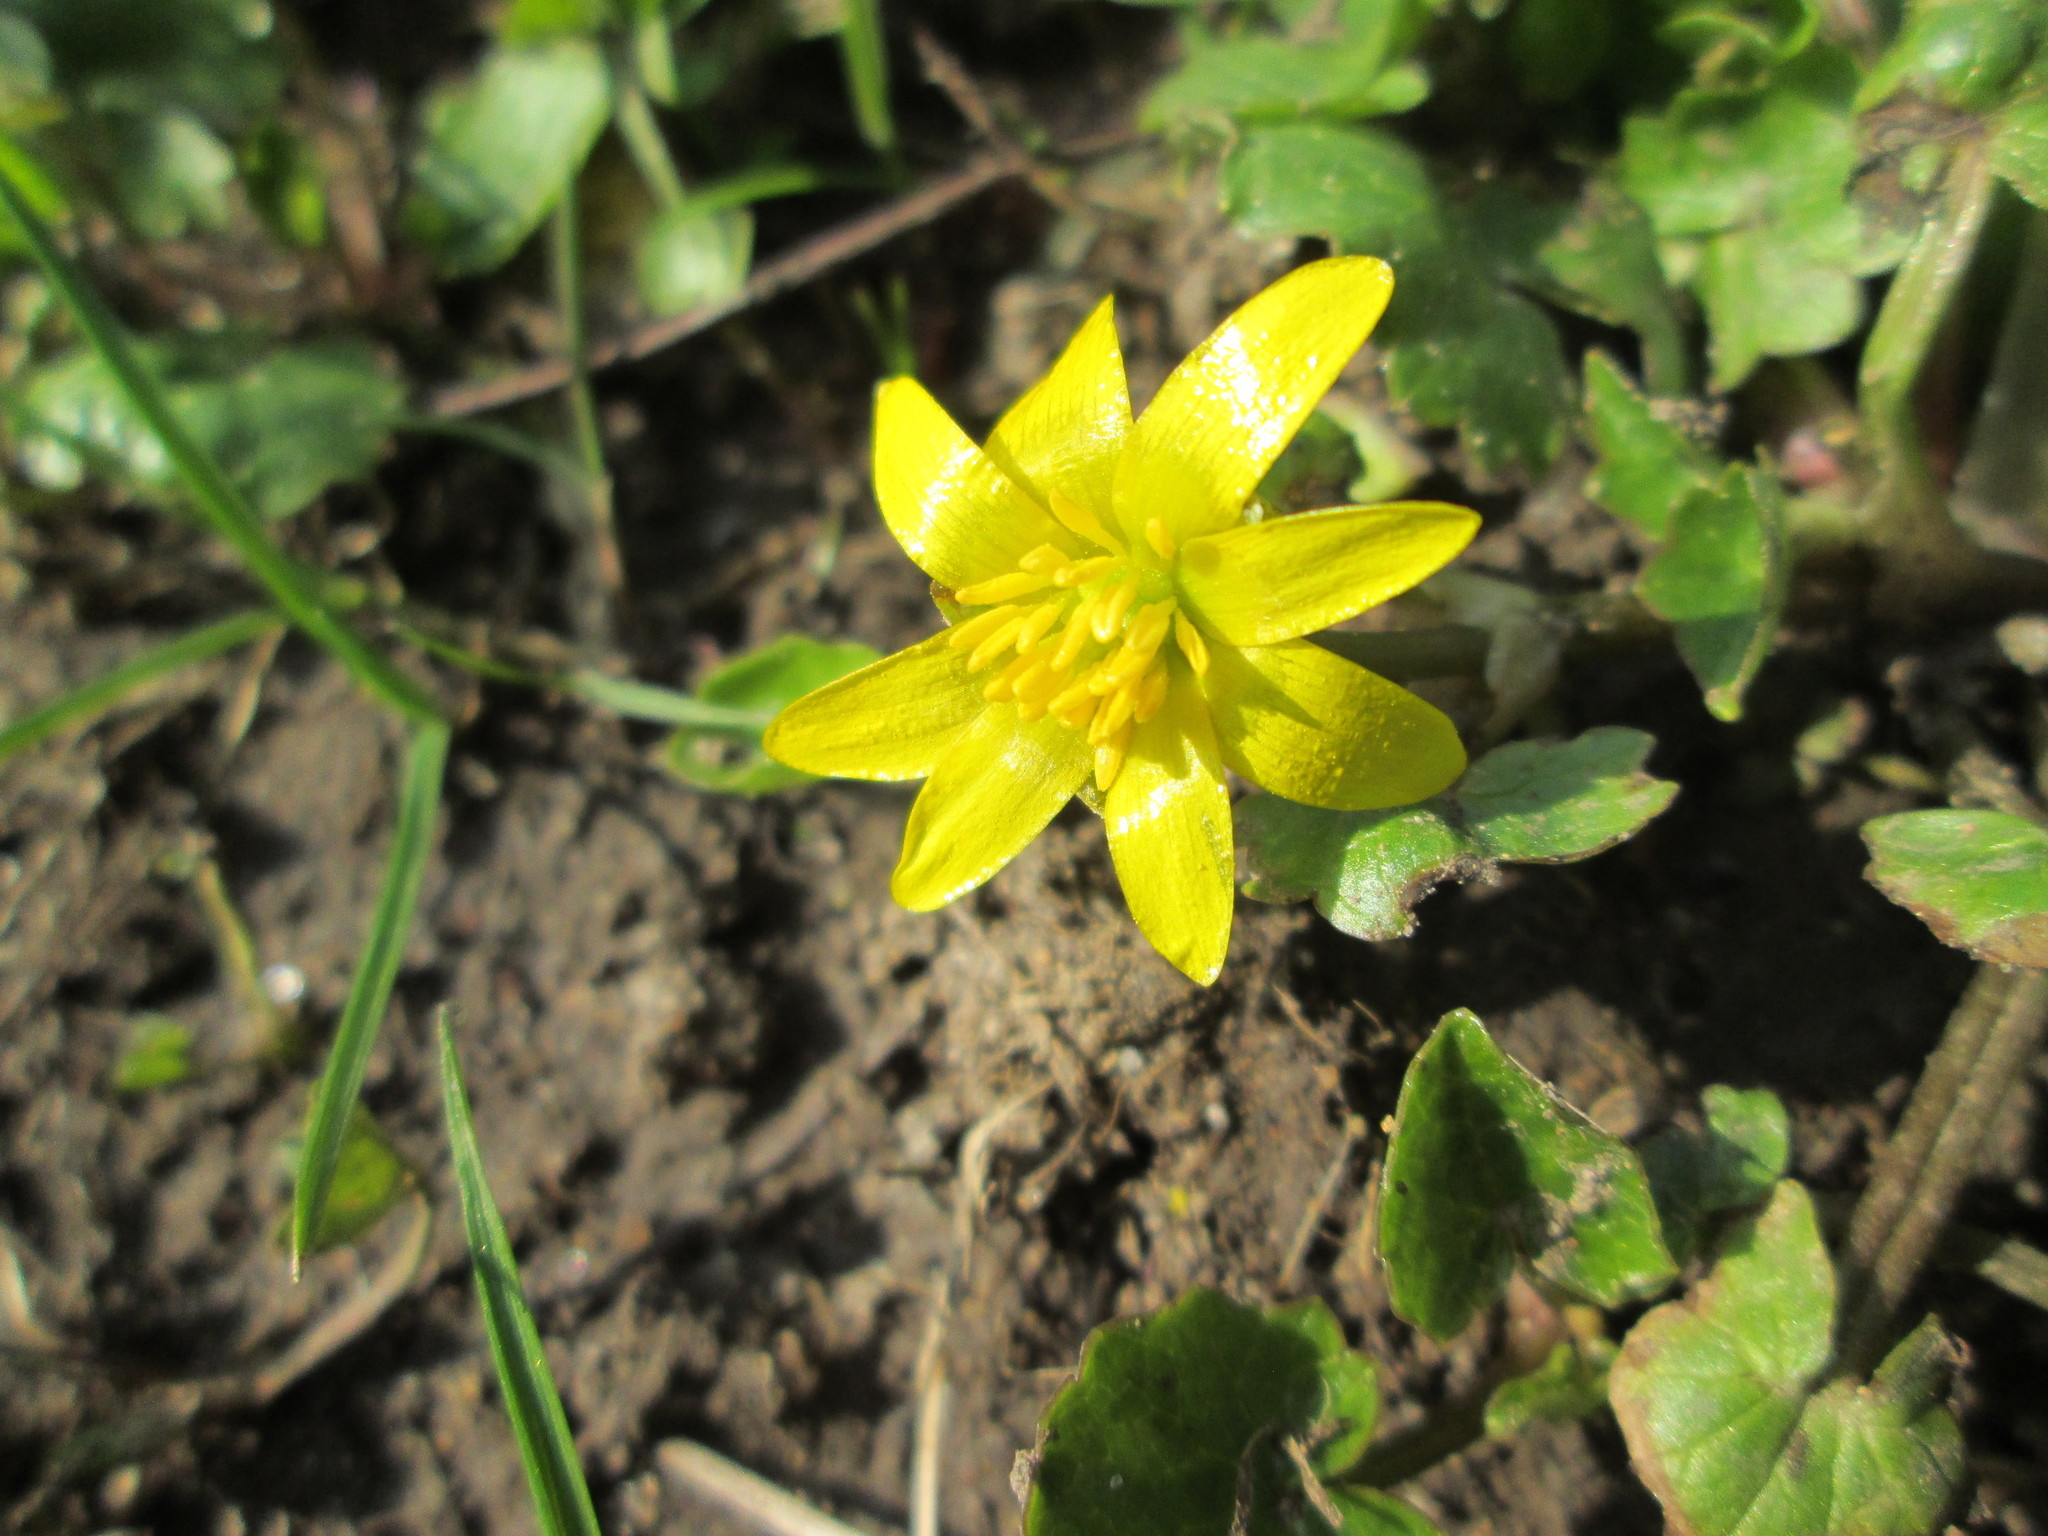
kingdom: Plantae
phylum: Tracheophyta
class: Magnoliopsida
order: Ranunculales
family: Ranunculaceae
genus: Ficaria
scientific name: Ficaria verna
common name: Lesser celandine
